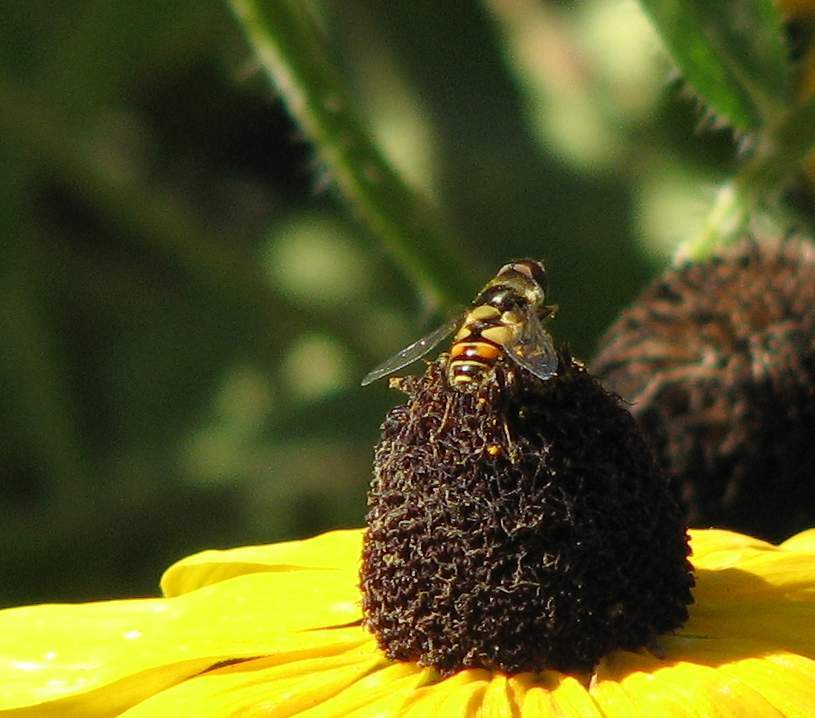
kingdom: Animalia
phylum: Arthropoda
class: Insecta
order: Diptera
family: Syrphidae
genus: Eristalis
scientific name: Eristalis transversa
